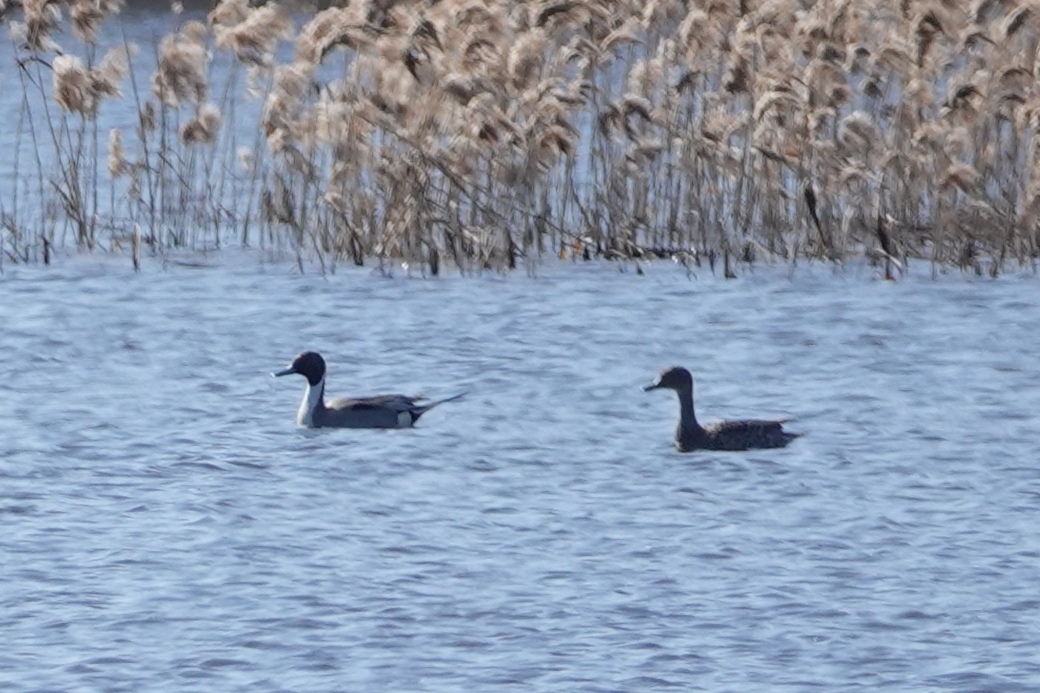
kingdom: Animalia
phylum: Chordata
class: Aves
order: Anseriformes
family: Anatidae
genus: Anas
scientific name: Anas acuta
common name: Northern pintail
